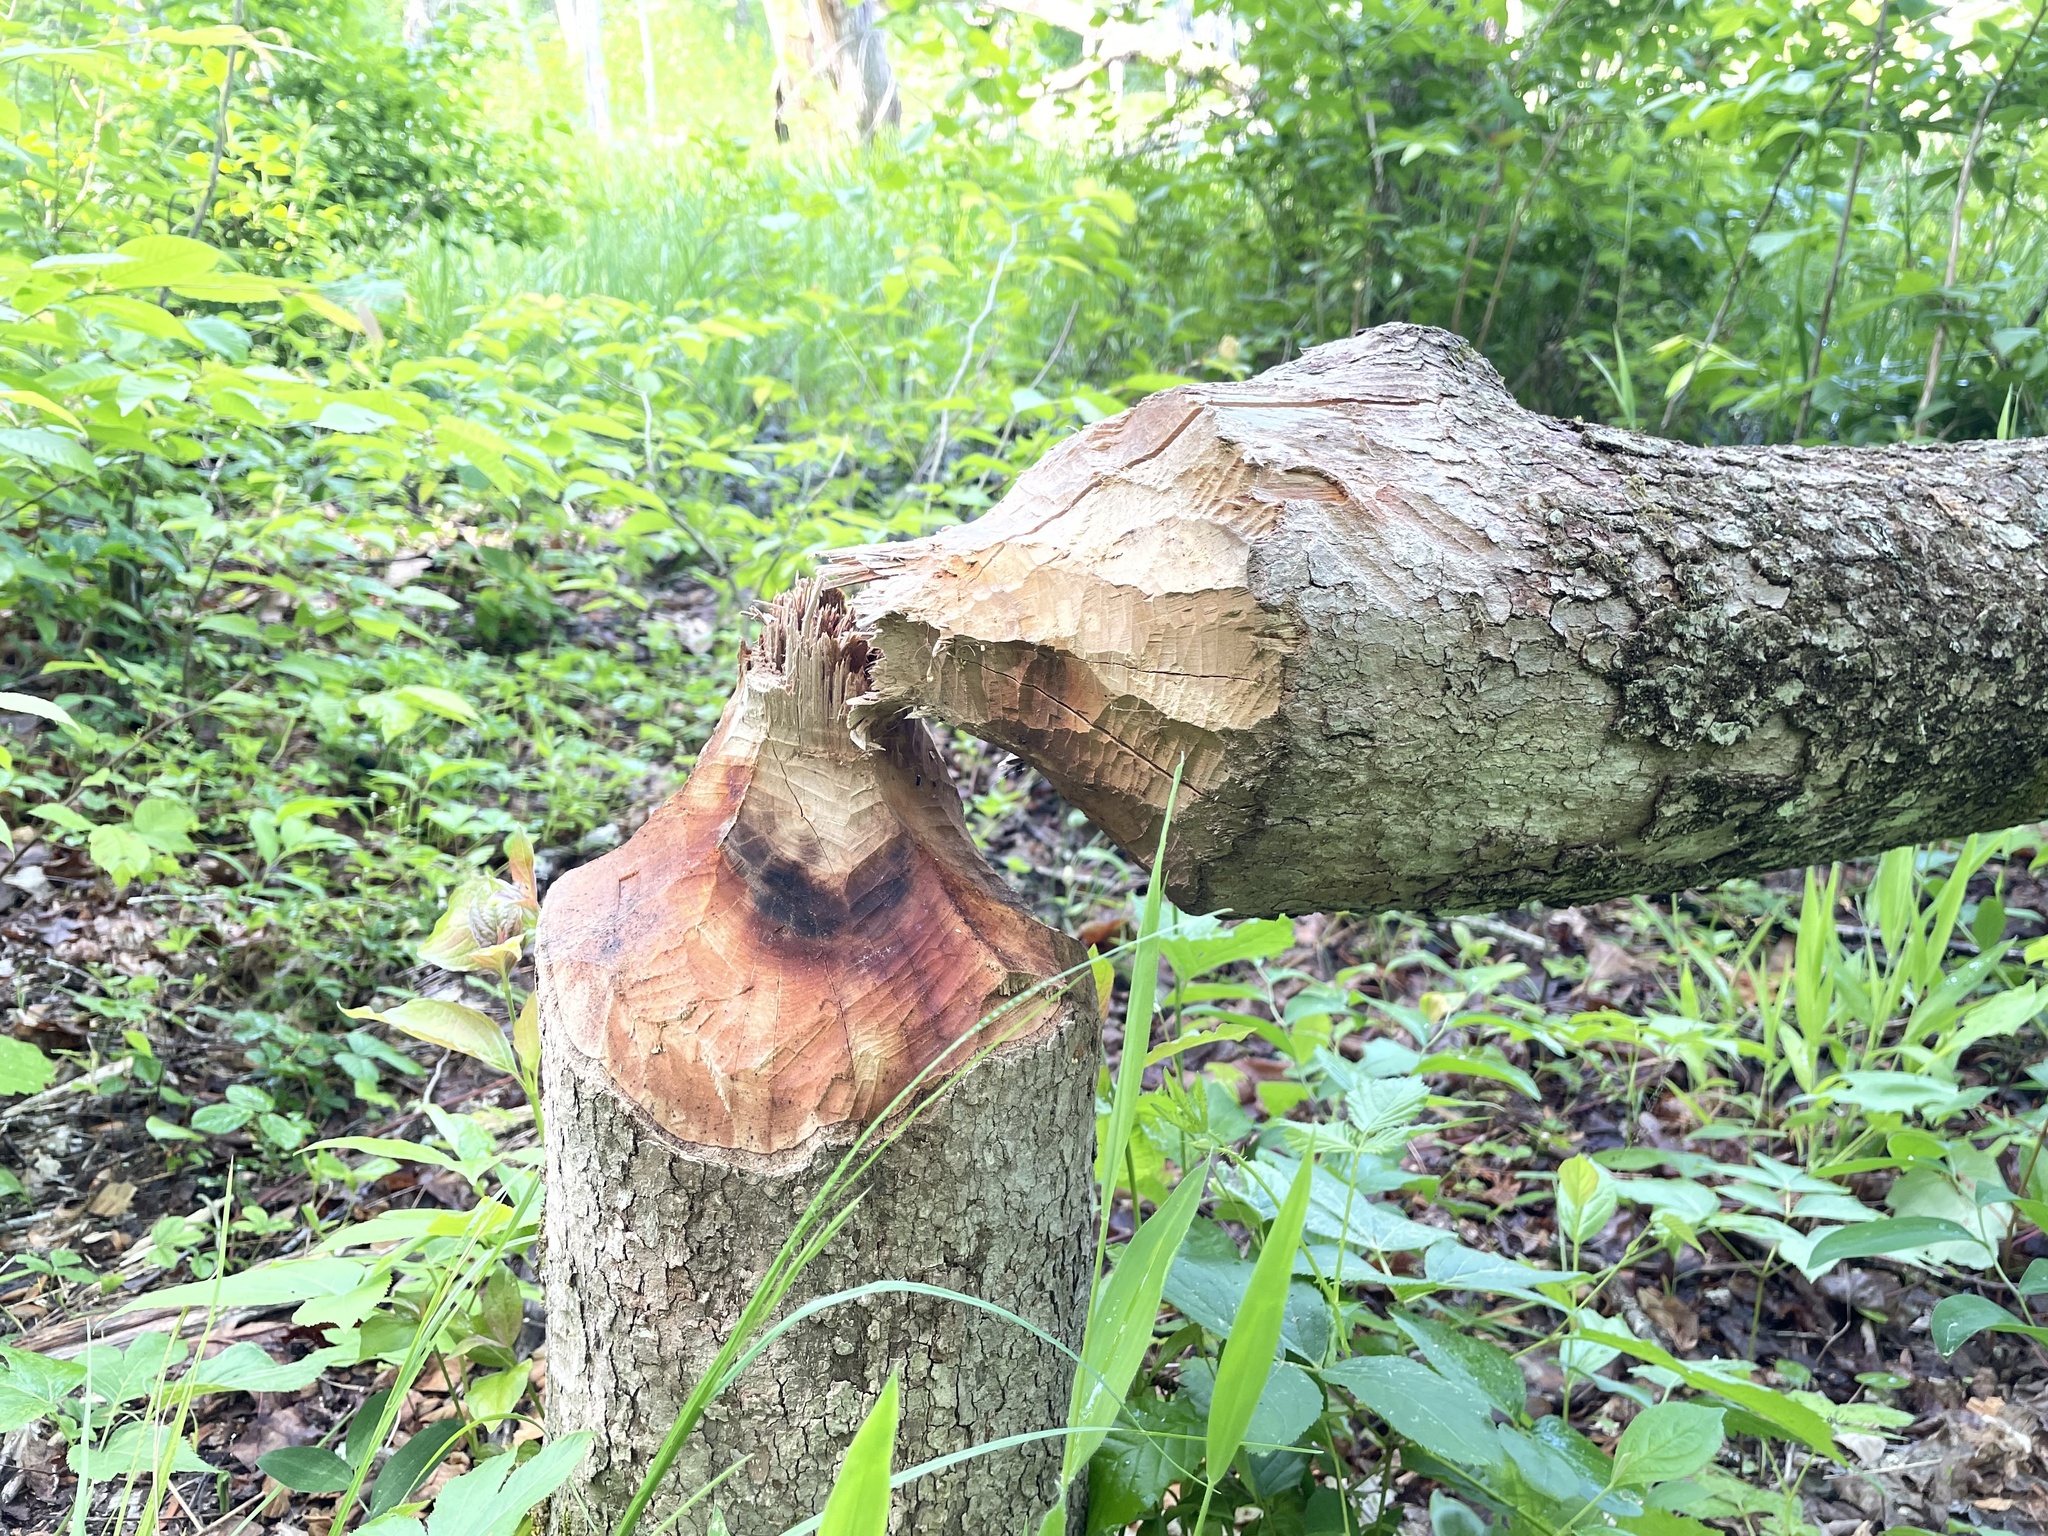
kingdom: Animalia
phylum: Chordata
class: Mammalia
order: Rodentia
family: Castoridae
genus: Castor
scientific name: Castor canadensis
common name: American beaver
